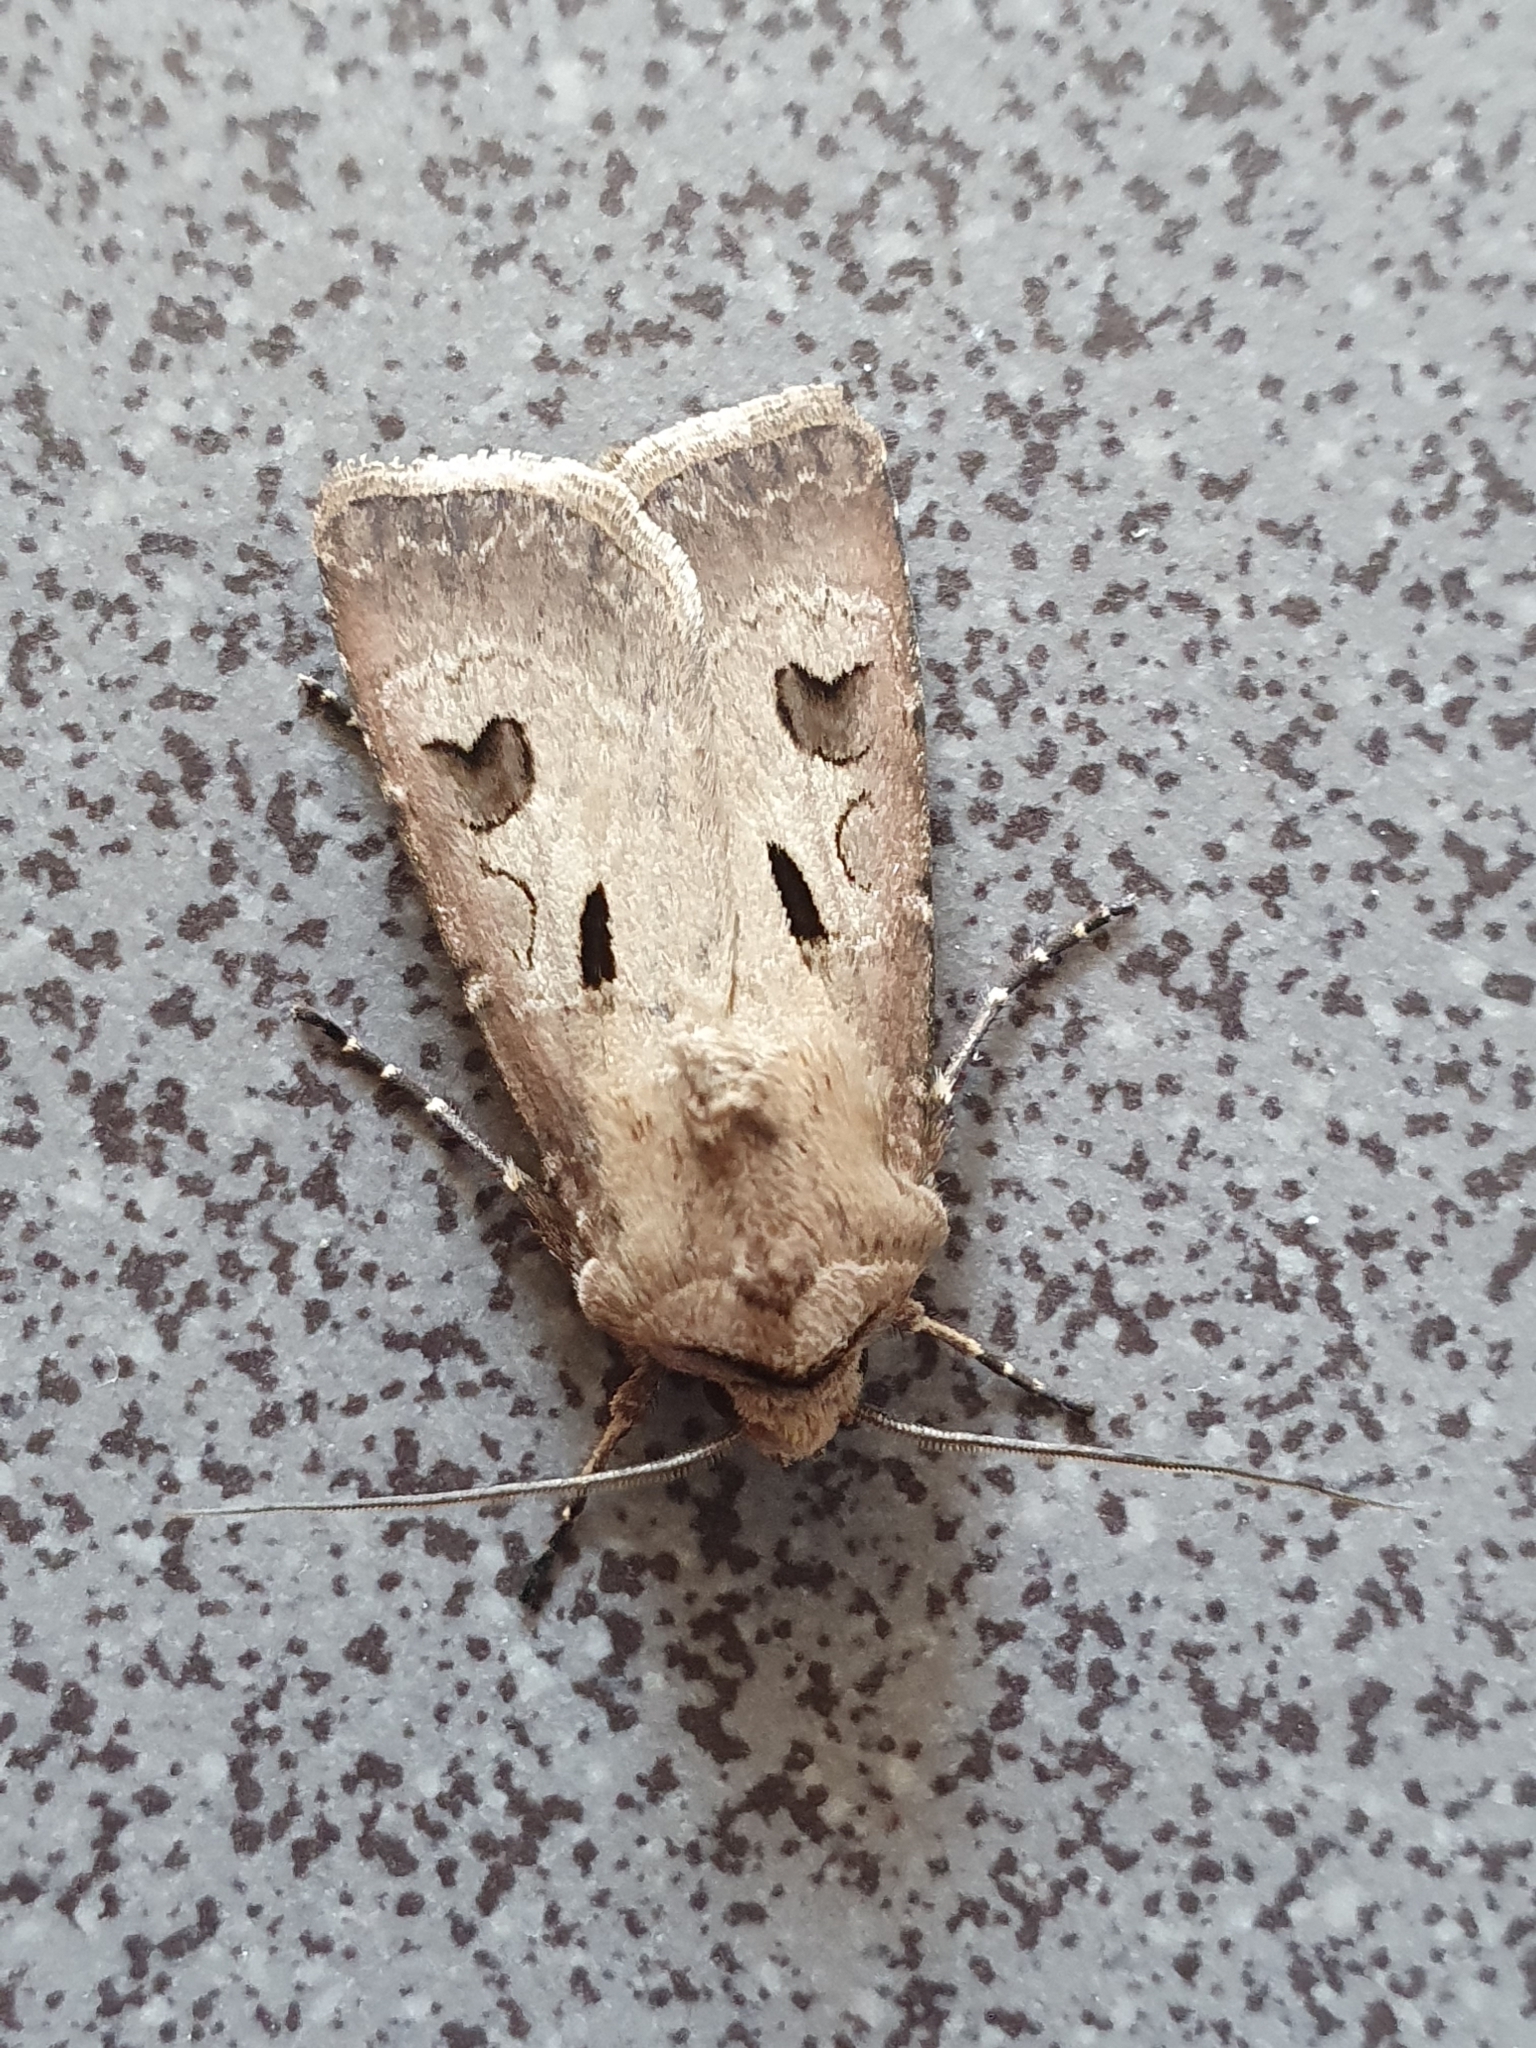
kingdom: Animalia
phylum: Arthropoda
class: Insecta
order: Lepidoptera
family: Noctuidae
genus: Agrotis
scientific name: Agrotis exclamationis
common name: Heart and dart
